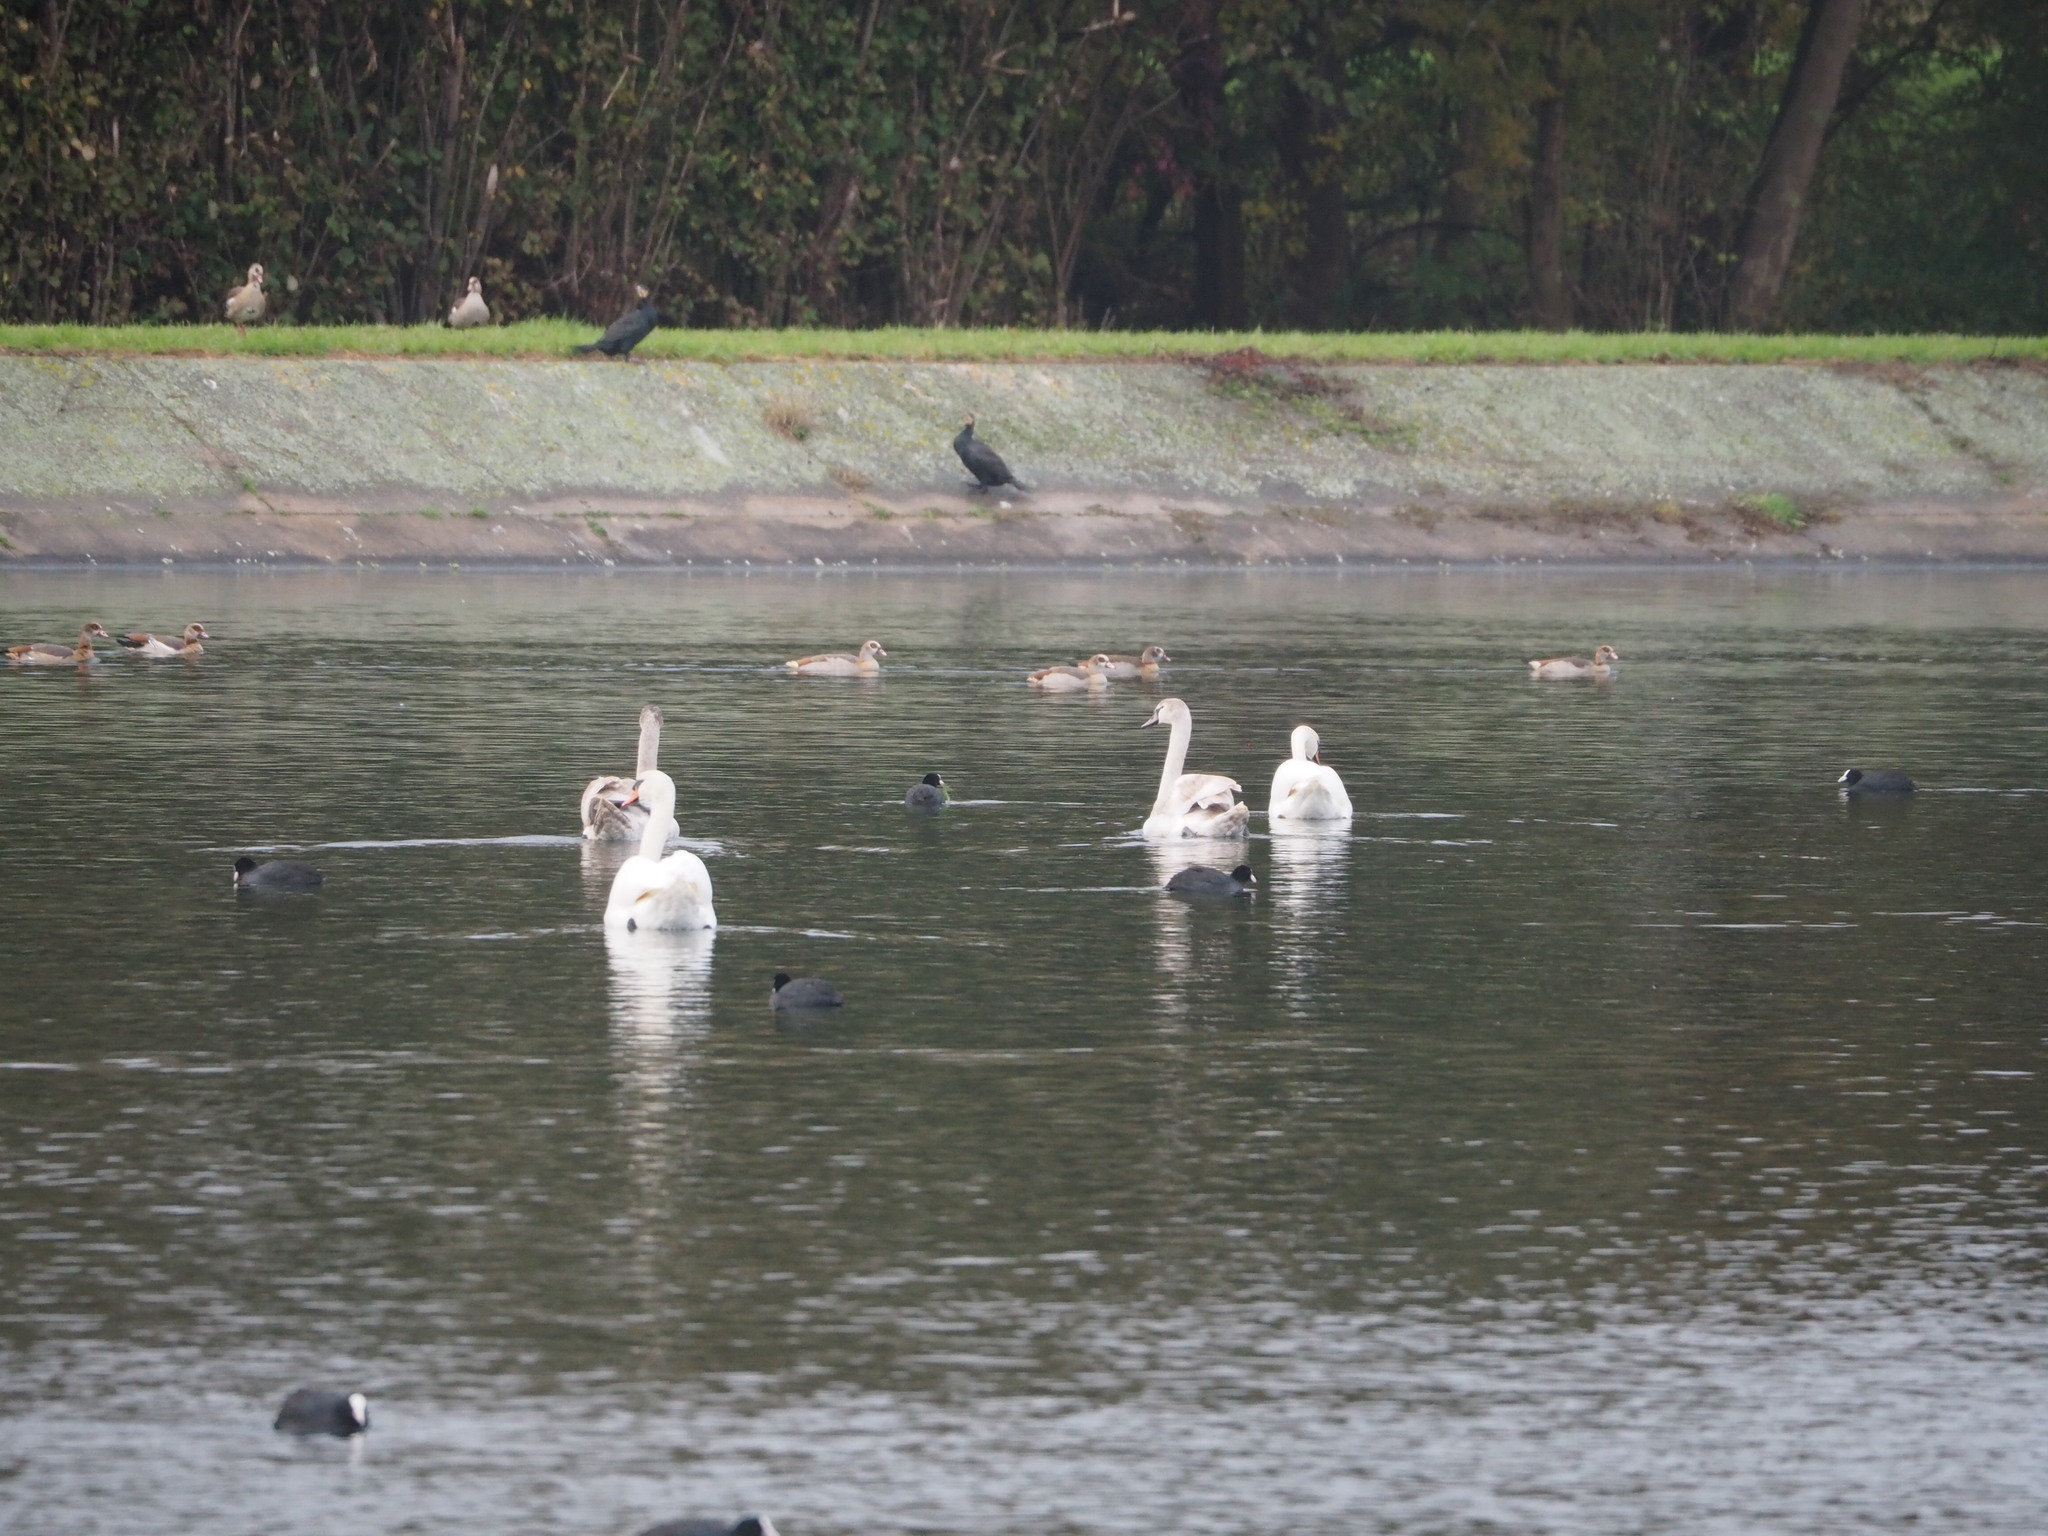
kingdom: Animalia
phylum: Chordata
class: Aves
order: Anseriformes
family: Anatidae
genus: Cygnus
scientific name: Cygnus olor
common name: Mute swan
